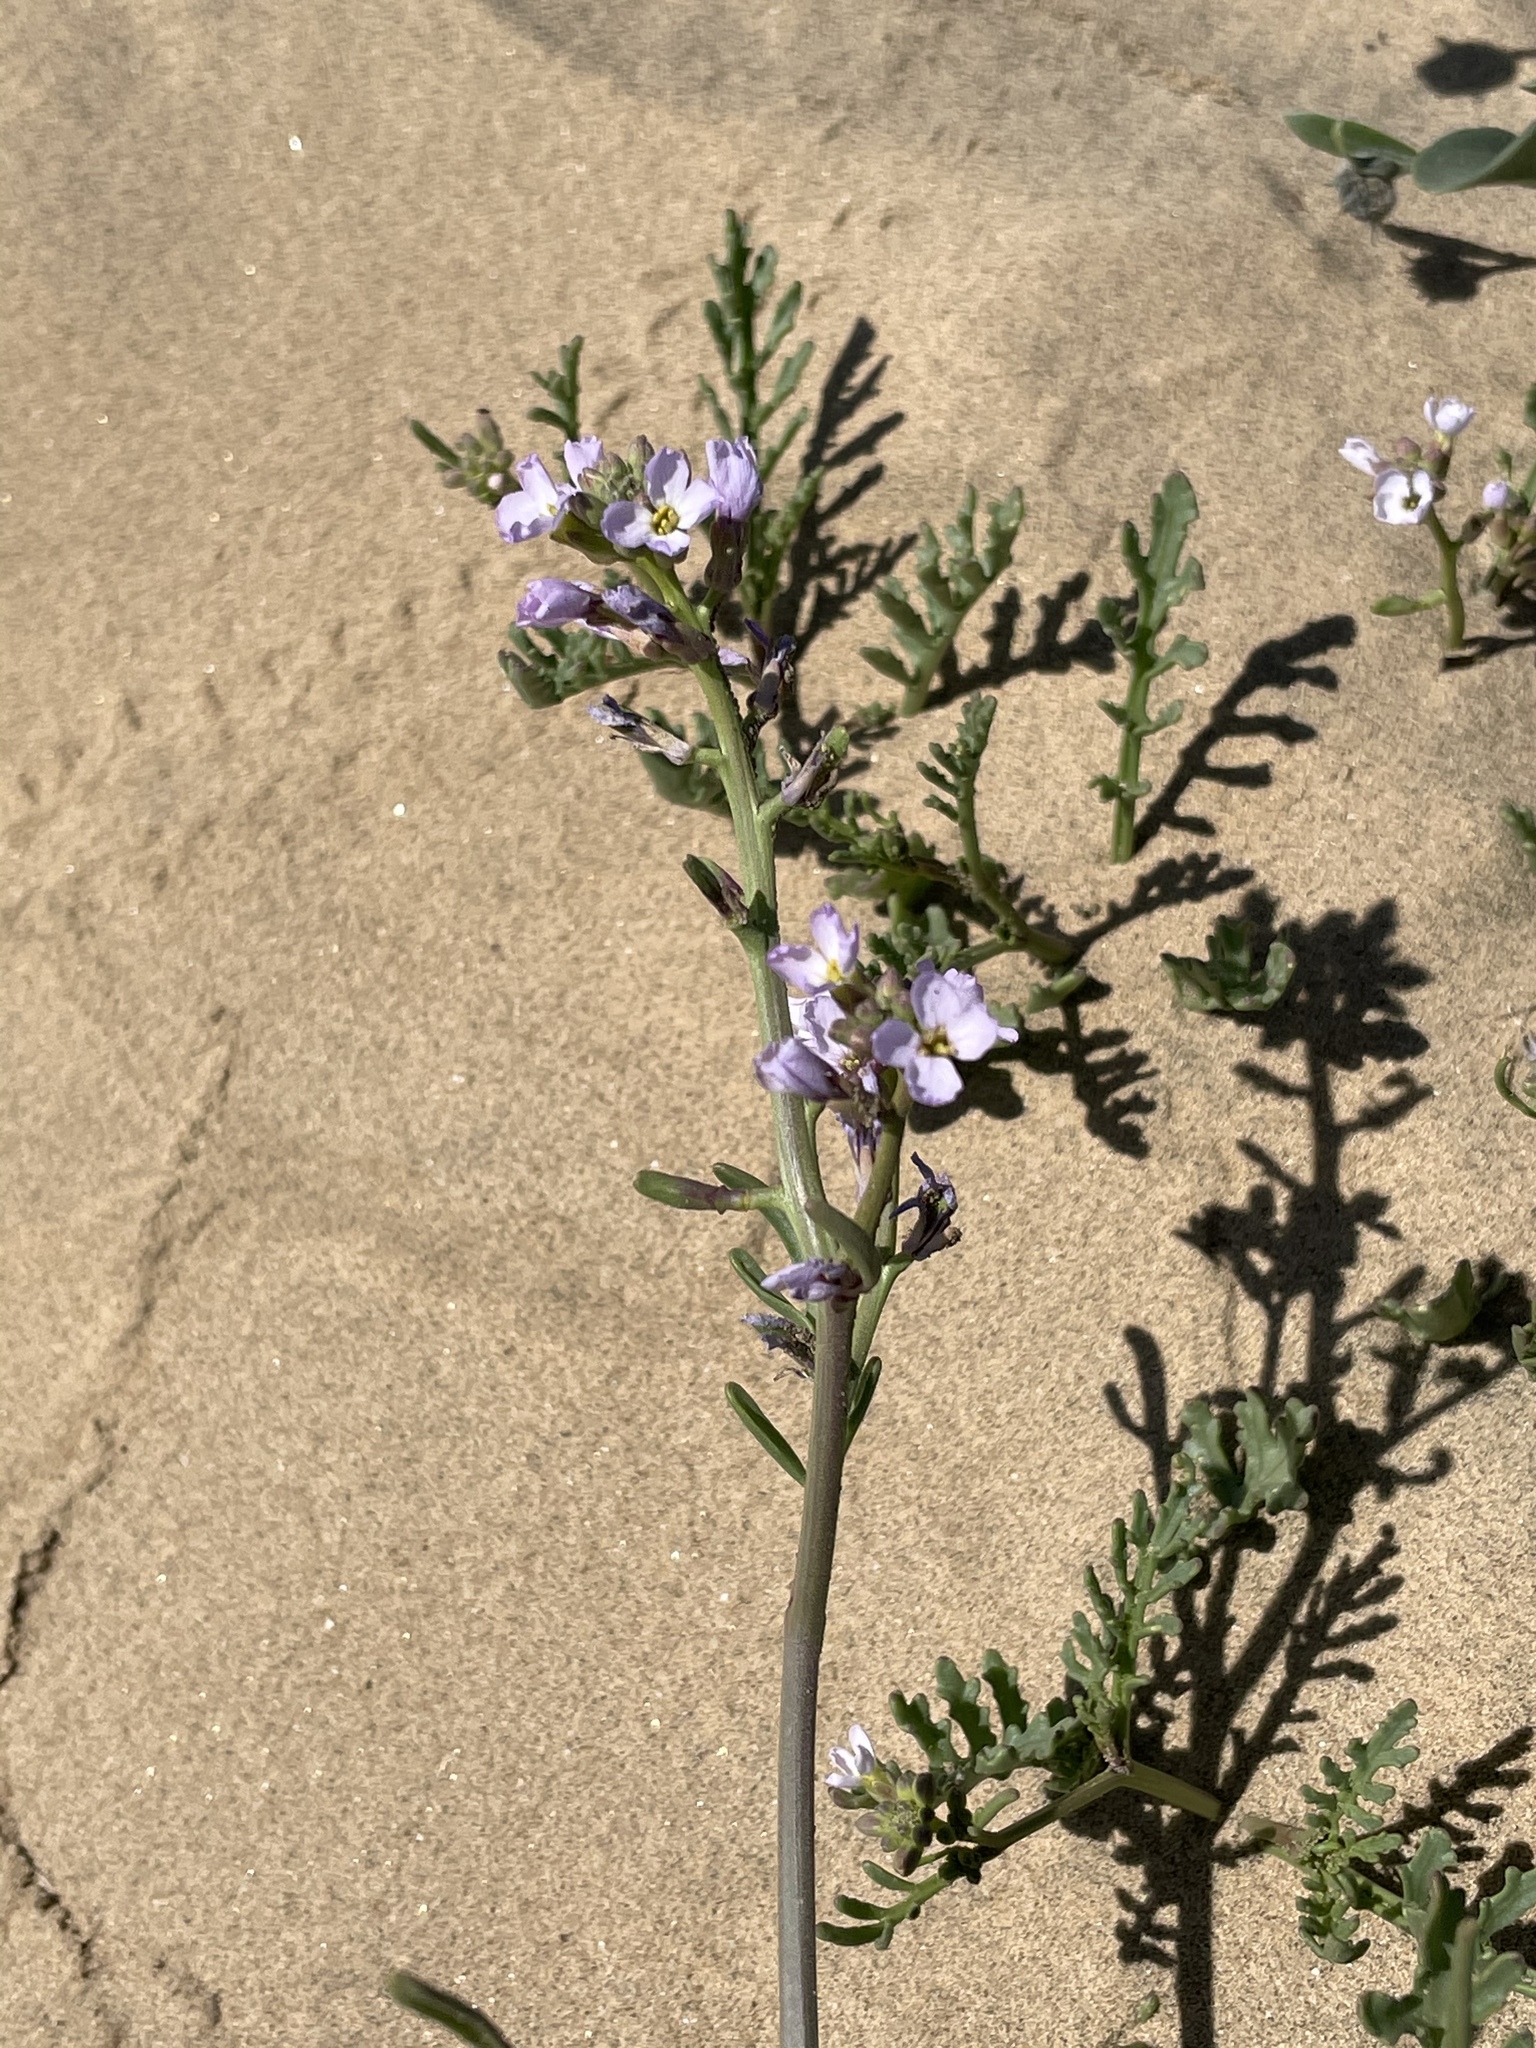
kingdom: Plantae
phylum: Tracheophyta
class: Magnoliopsida
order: Brassicales
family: Brassicaceae
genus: Cakile
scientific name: Cakile maritima
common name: Sea rocket
